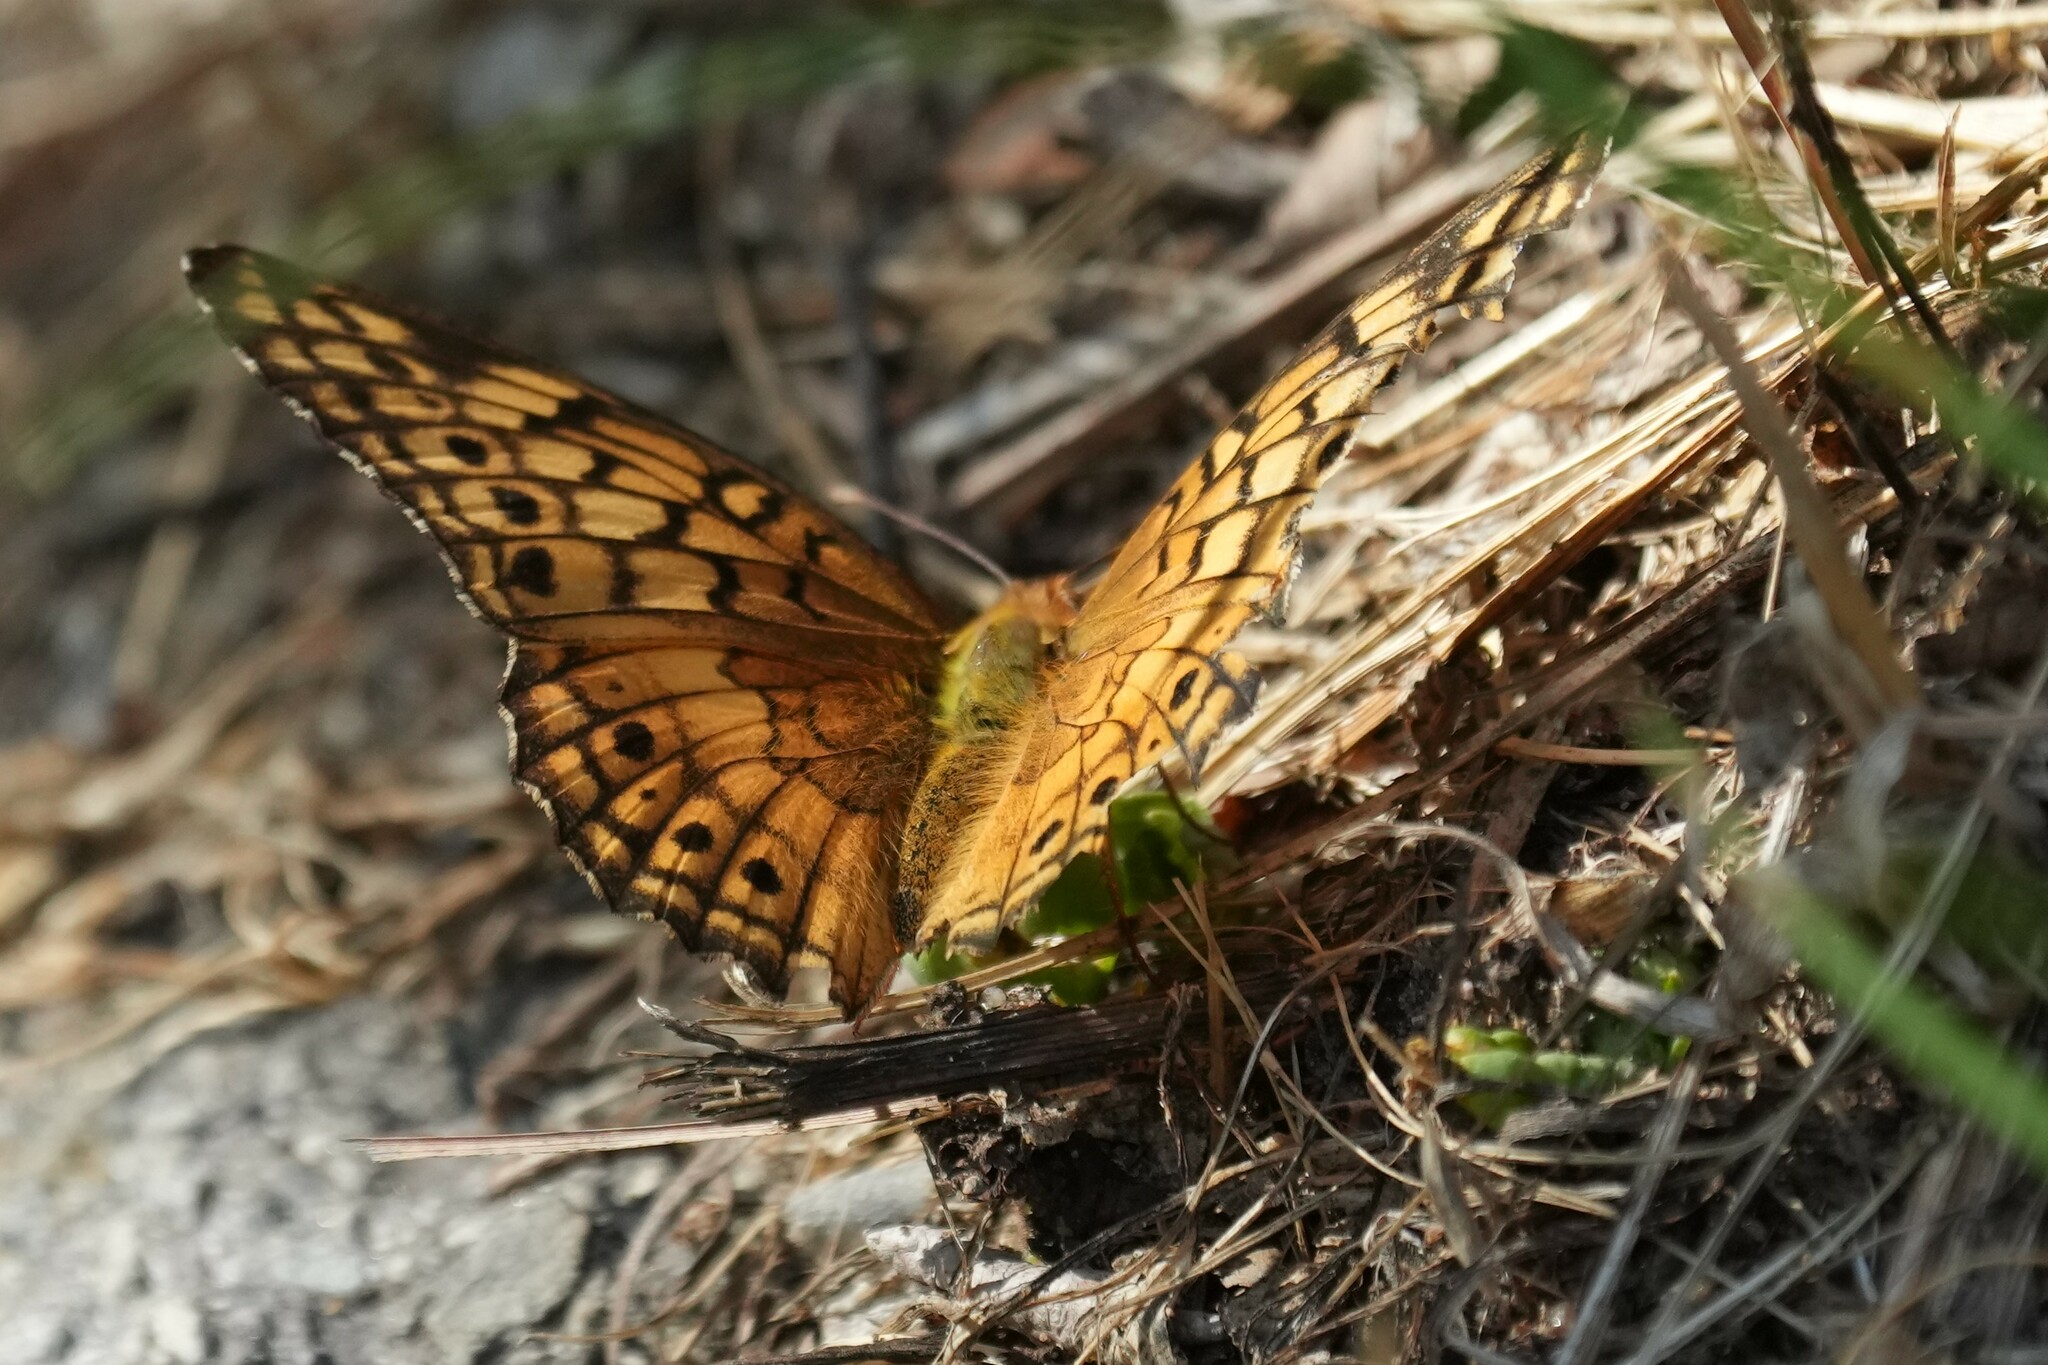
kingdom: Animalia
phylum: Arthropoda
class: Insecta
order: Lepidoptera
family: Nymphalidae
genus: Euptoieta
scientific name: Euptoieta claudia
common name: Variegated fritillary
